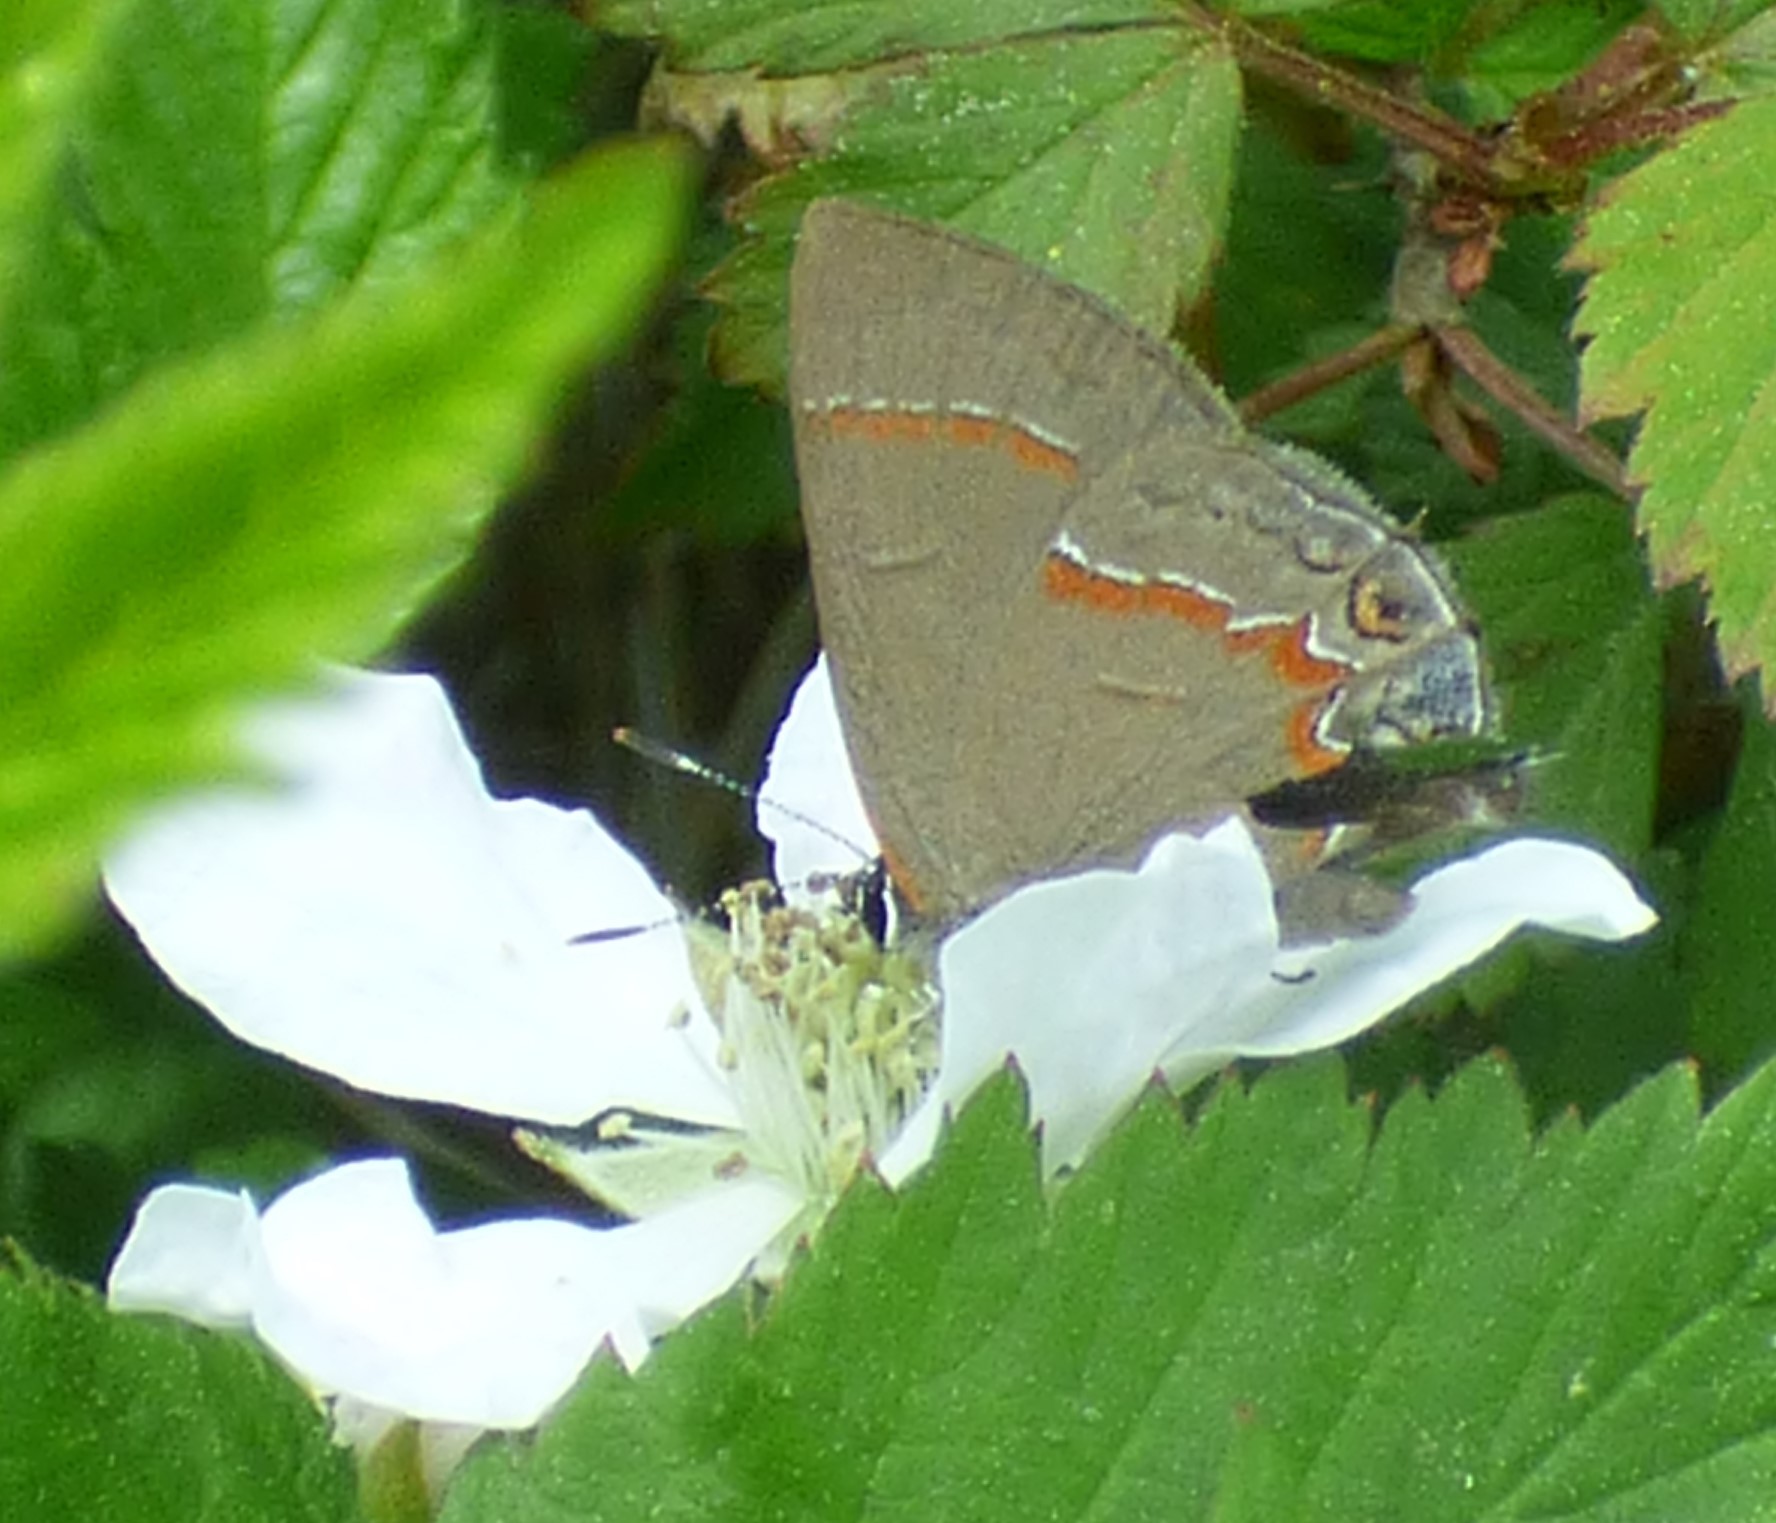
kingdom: Animalia
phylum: Arthropoda
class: Insecta
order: Lepidoptera
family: Lycaenidae
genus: Calycopis
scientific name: Calycopis cecrops
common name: Red-banded hairstreak
